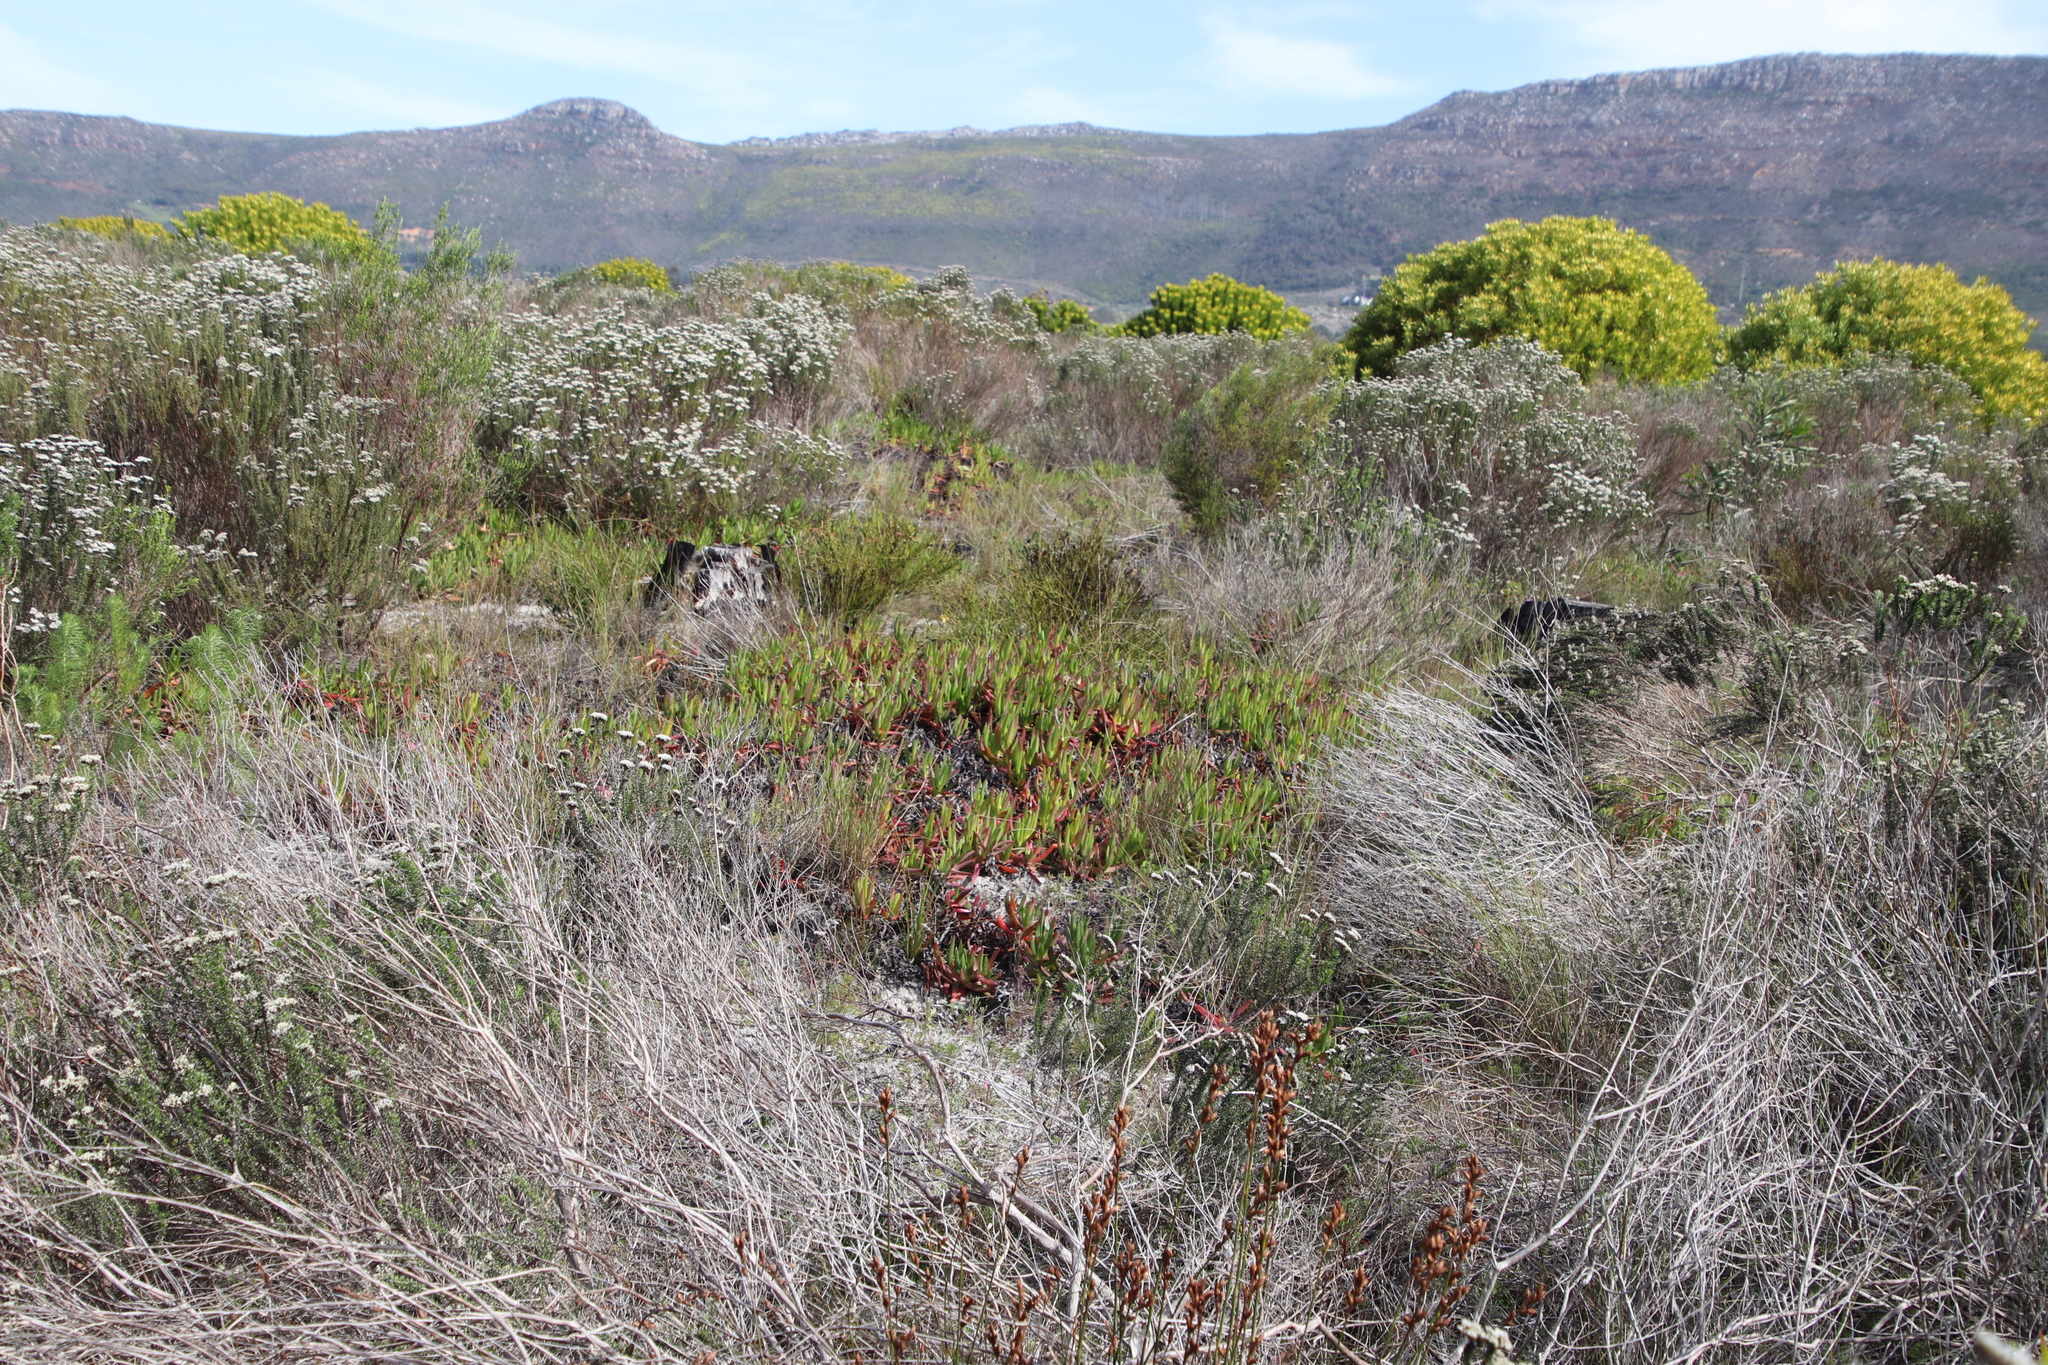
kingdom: Plantae
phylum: Tracheophyta
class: Magnoliopsida
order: Caryophyllales
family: Aizoaceae
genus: Carpobrotus
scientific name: Carpobrotus edulis
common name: Hottentot-fig
